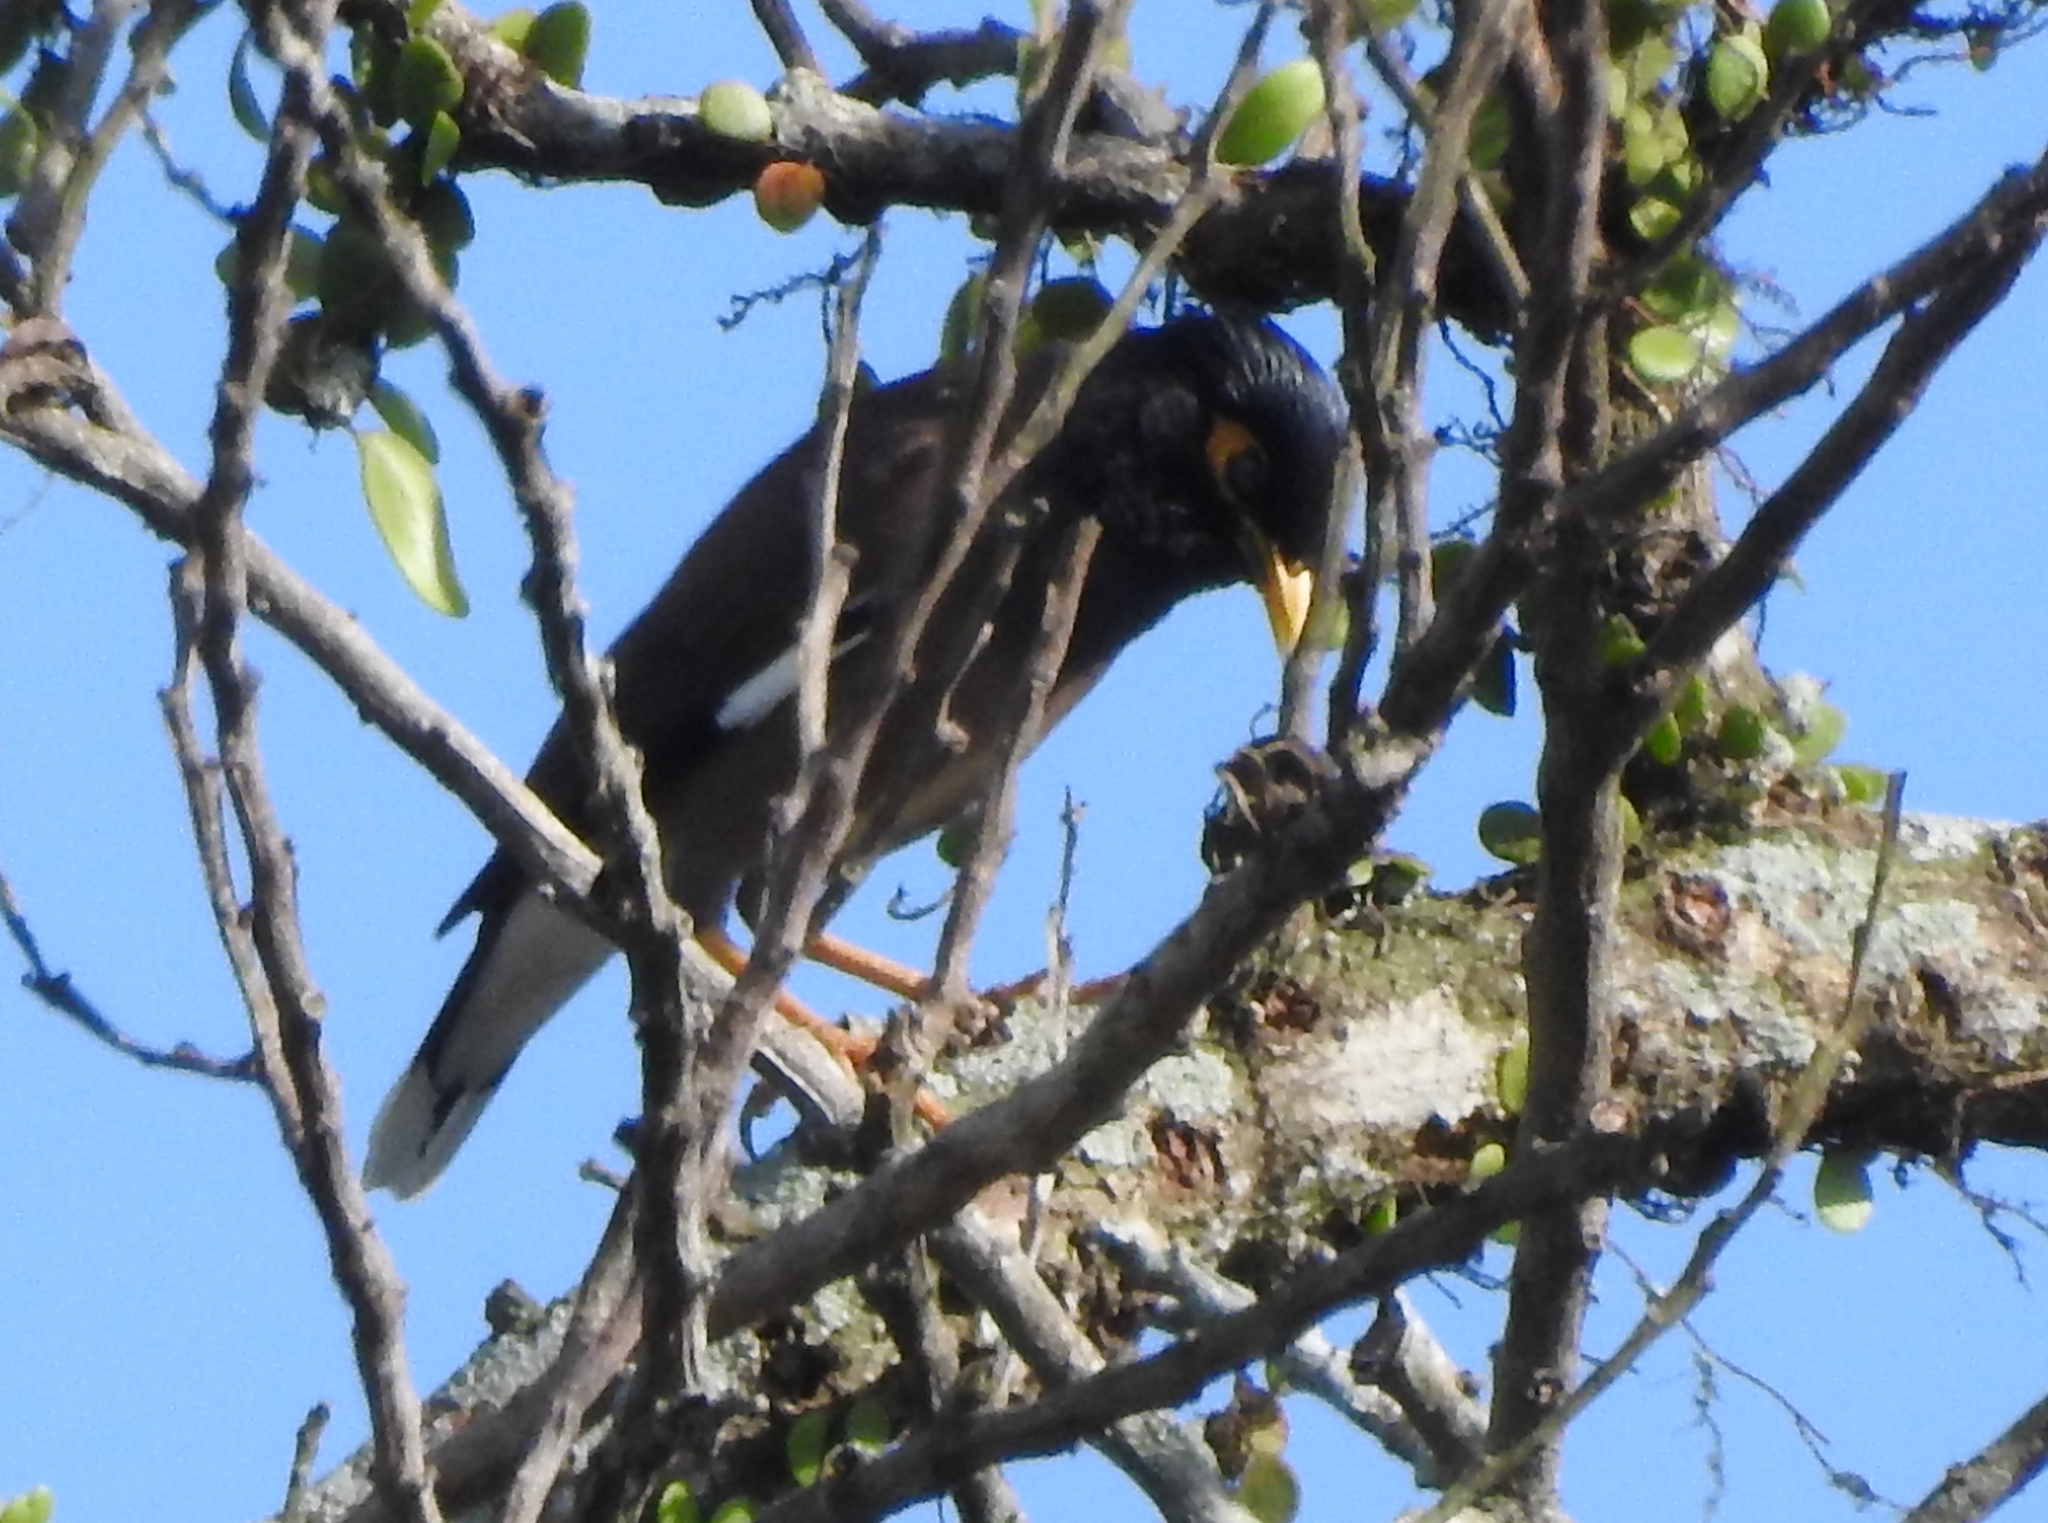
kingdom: Animalia
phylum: Chordata
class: Aves
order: Passeriformes
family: Sturnidae
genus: Acridotheres
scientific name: Acridotheres tristis
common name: Common myna
